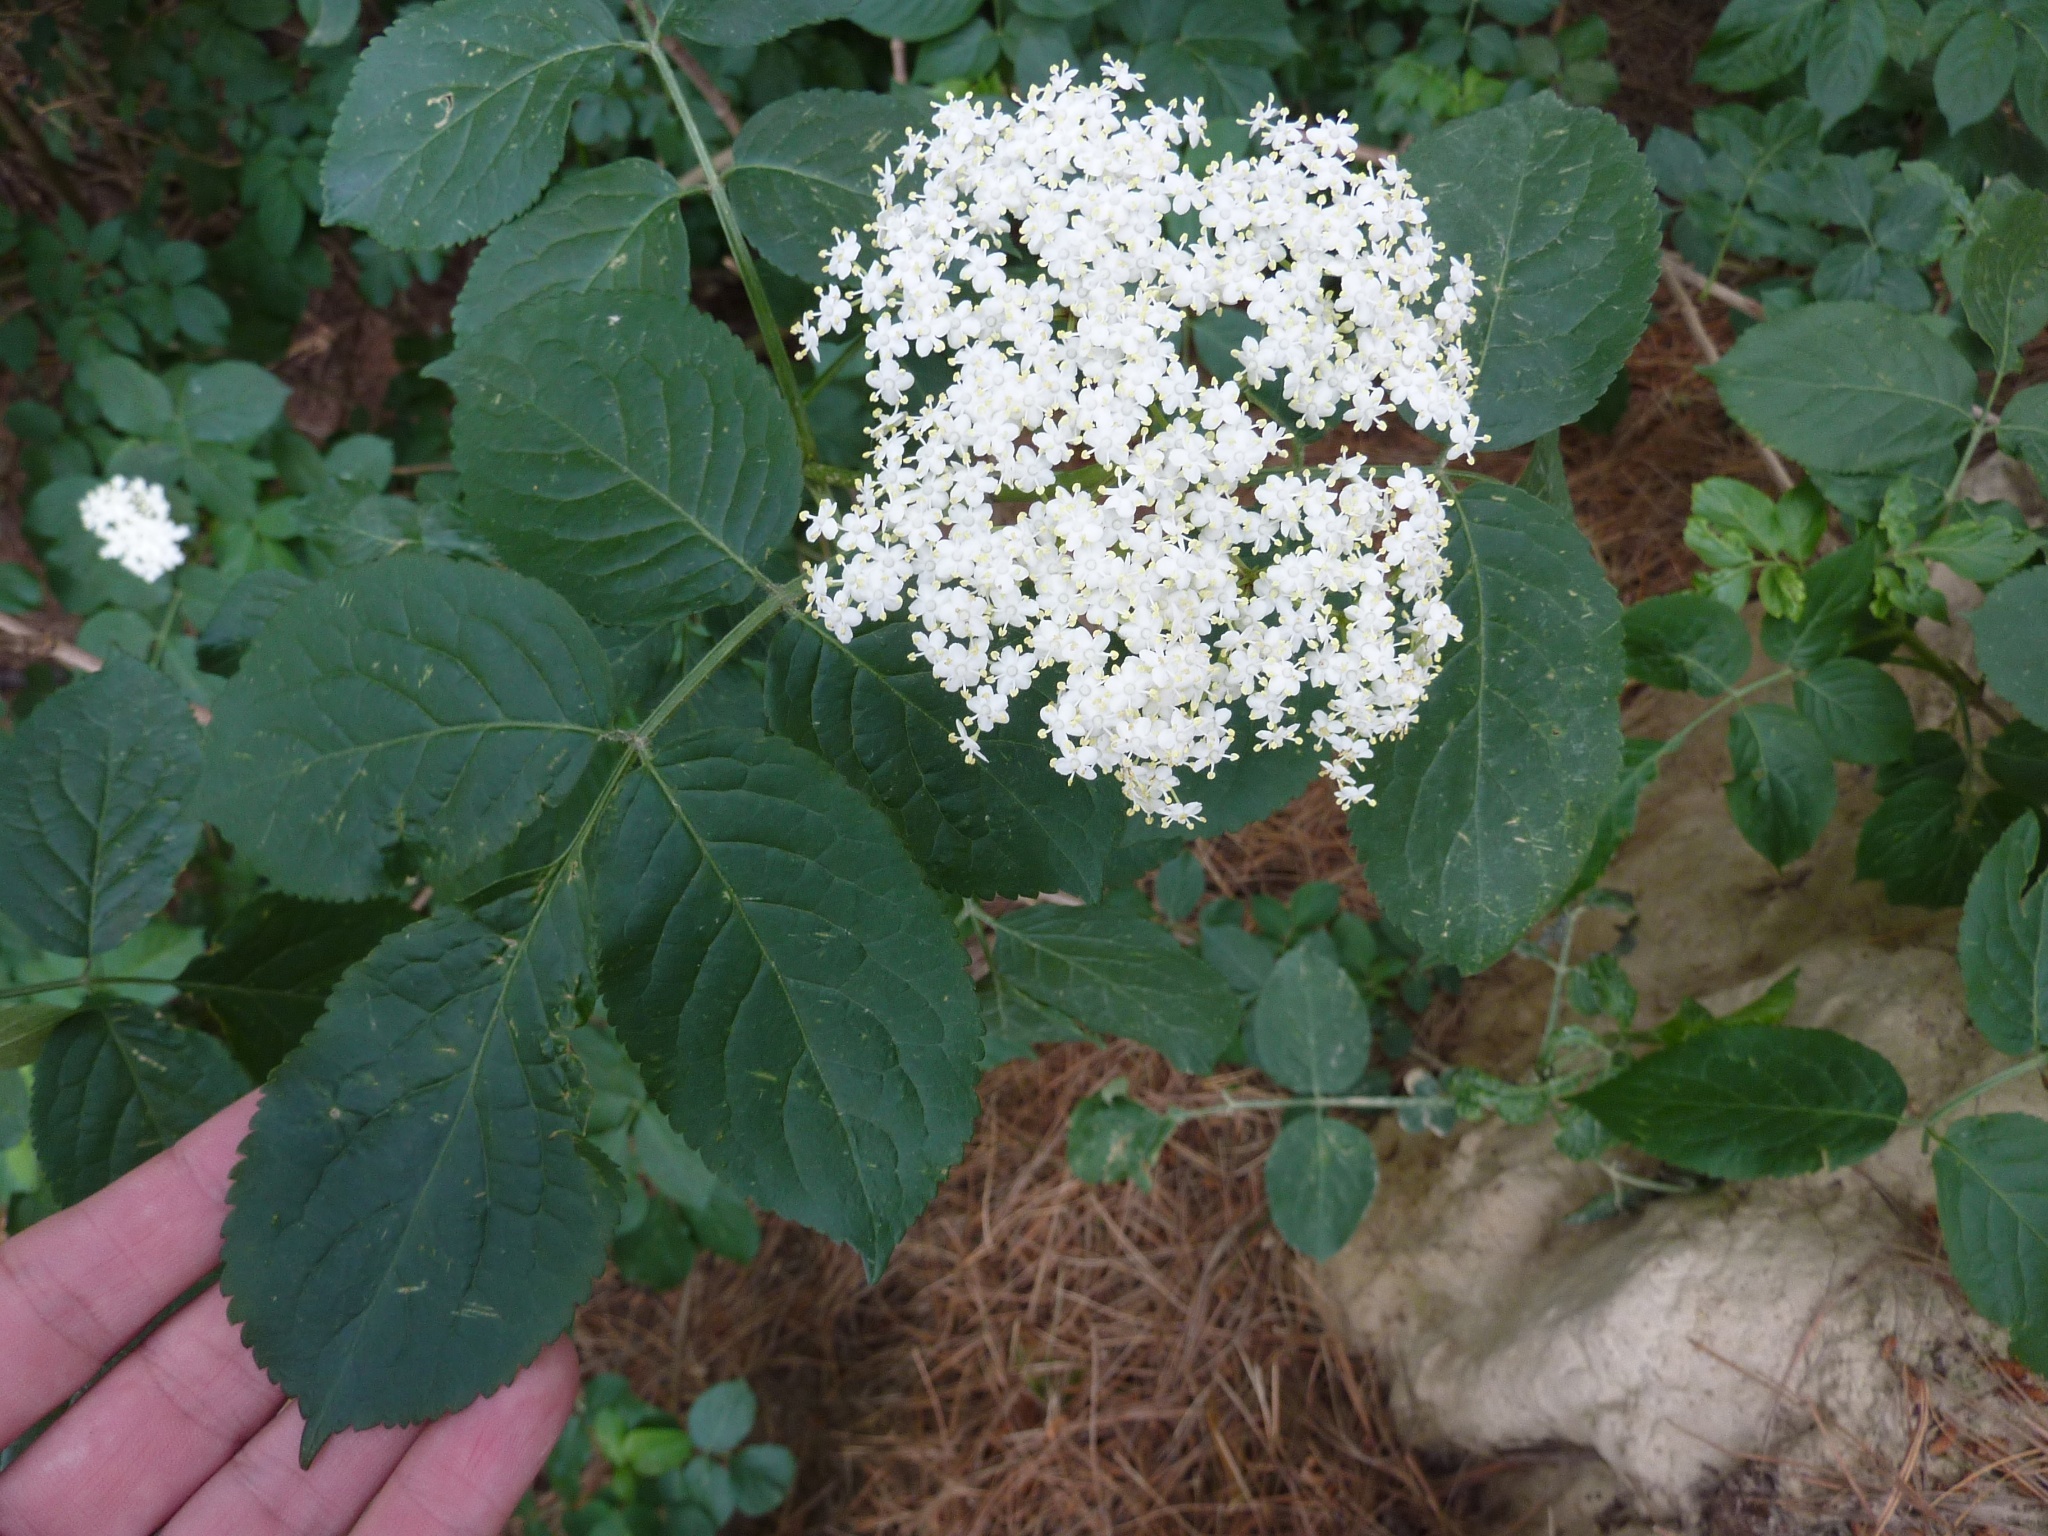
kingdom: Plantae
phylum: Tracheophyta
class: Magnoliopsida
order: Dipsacales
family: Viburnaceae
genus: Sambucus
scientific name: Sambucus nigra
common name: Elder
